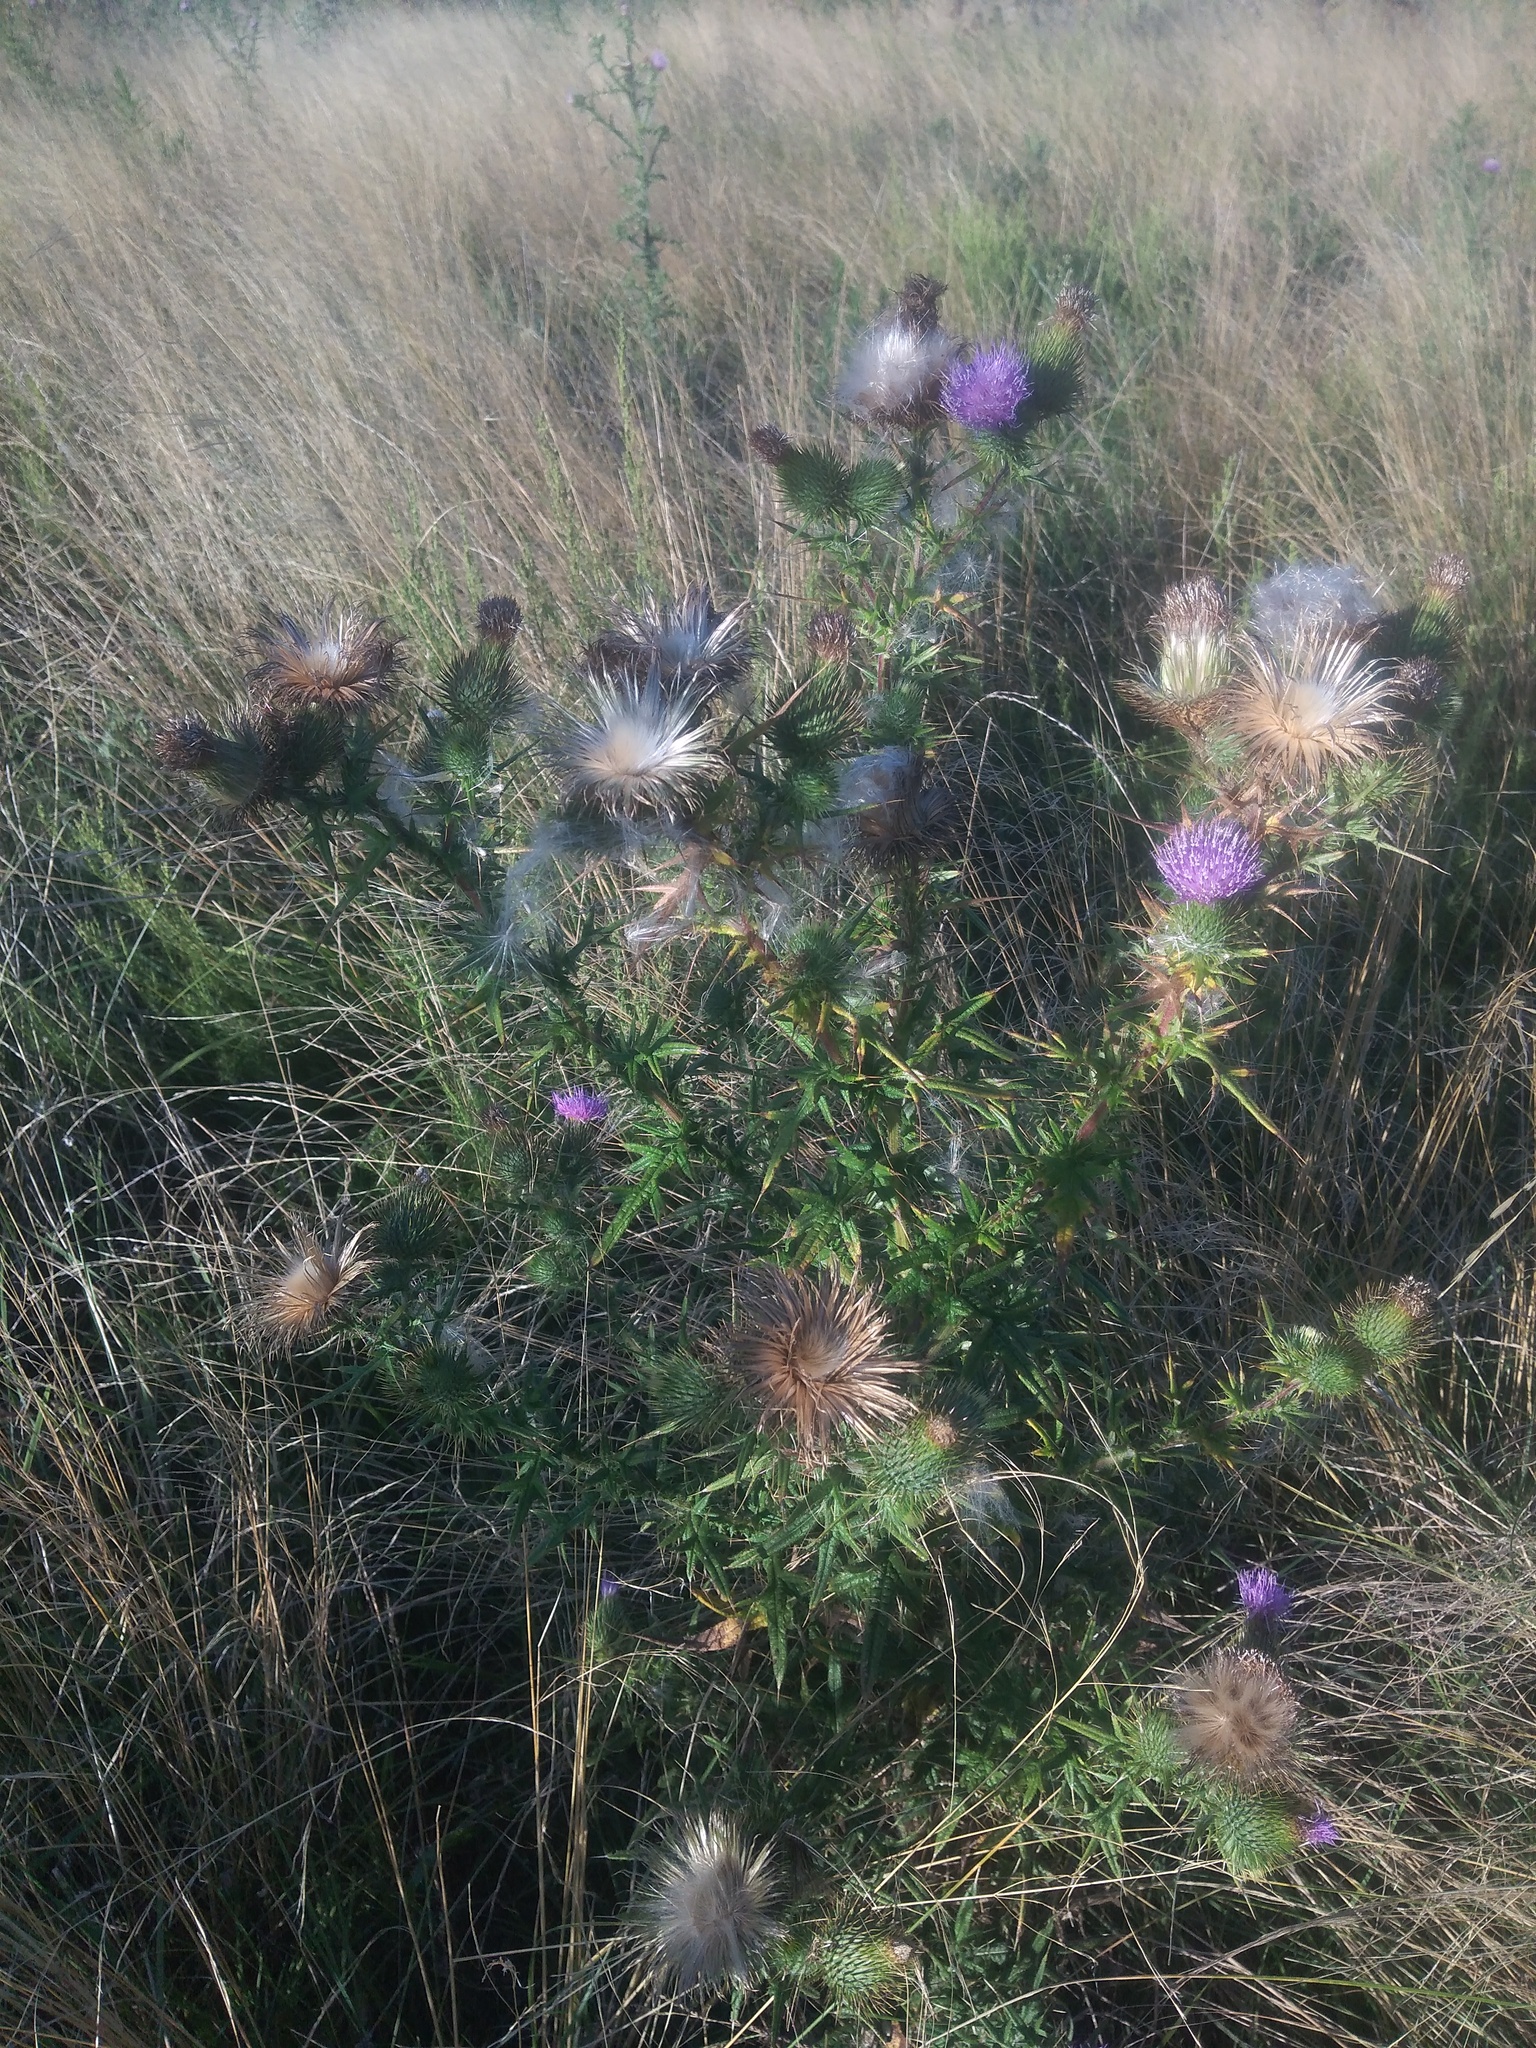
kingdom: Plantae
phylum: Tracheophyta
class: Magnoliopsida
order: Asterales
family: Asteraceae
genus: Cirsium
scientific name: Cirsium vulgare
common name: Bull thistle
